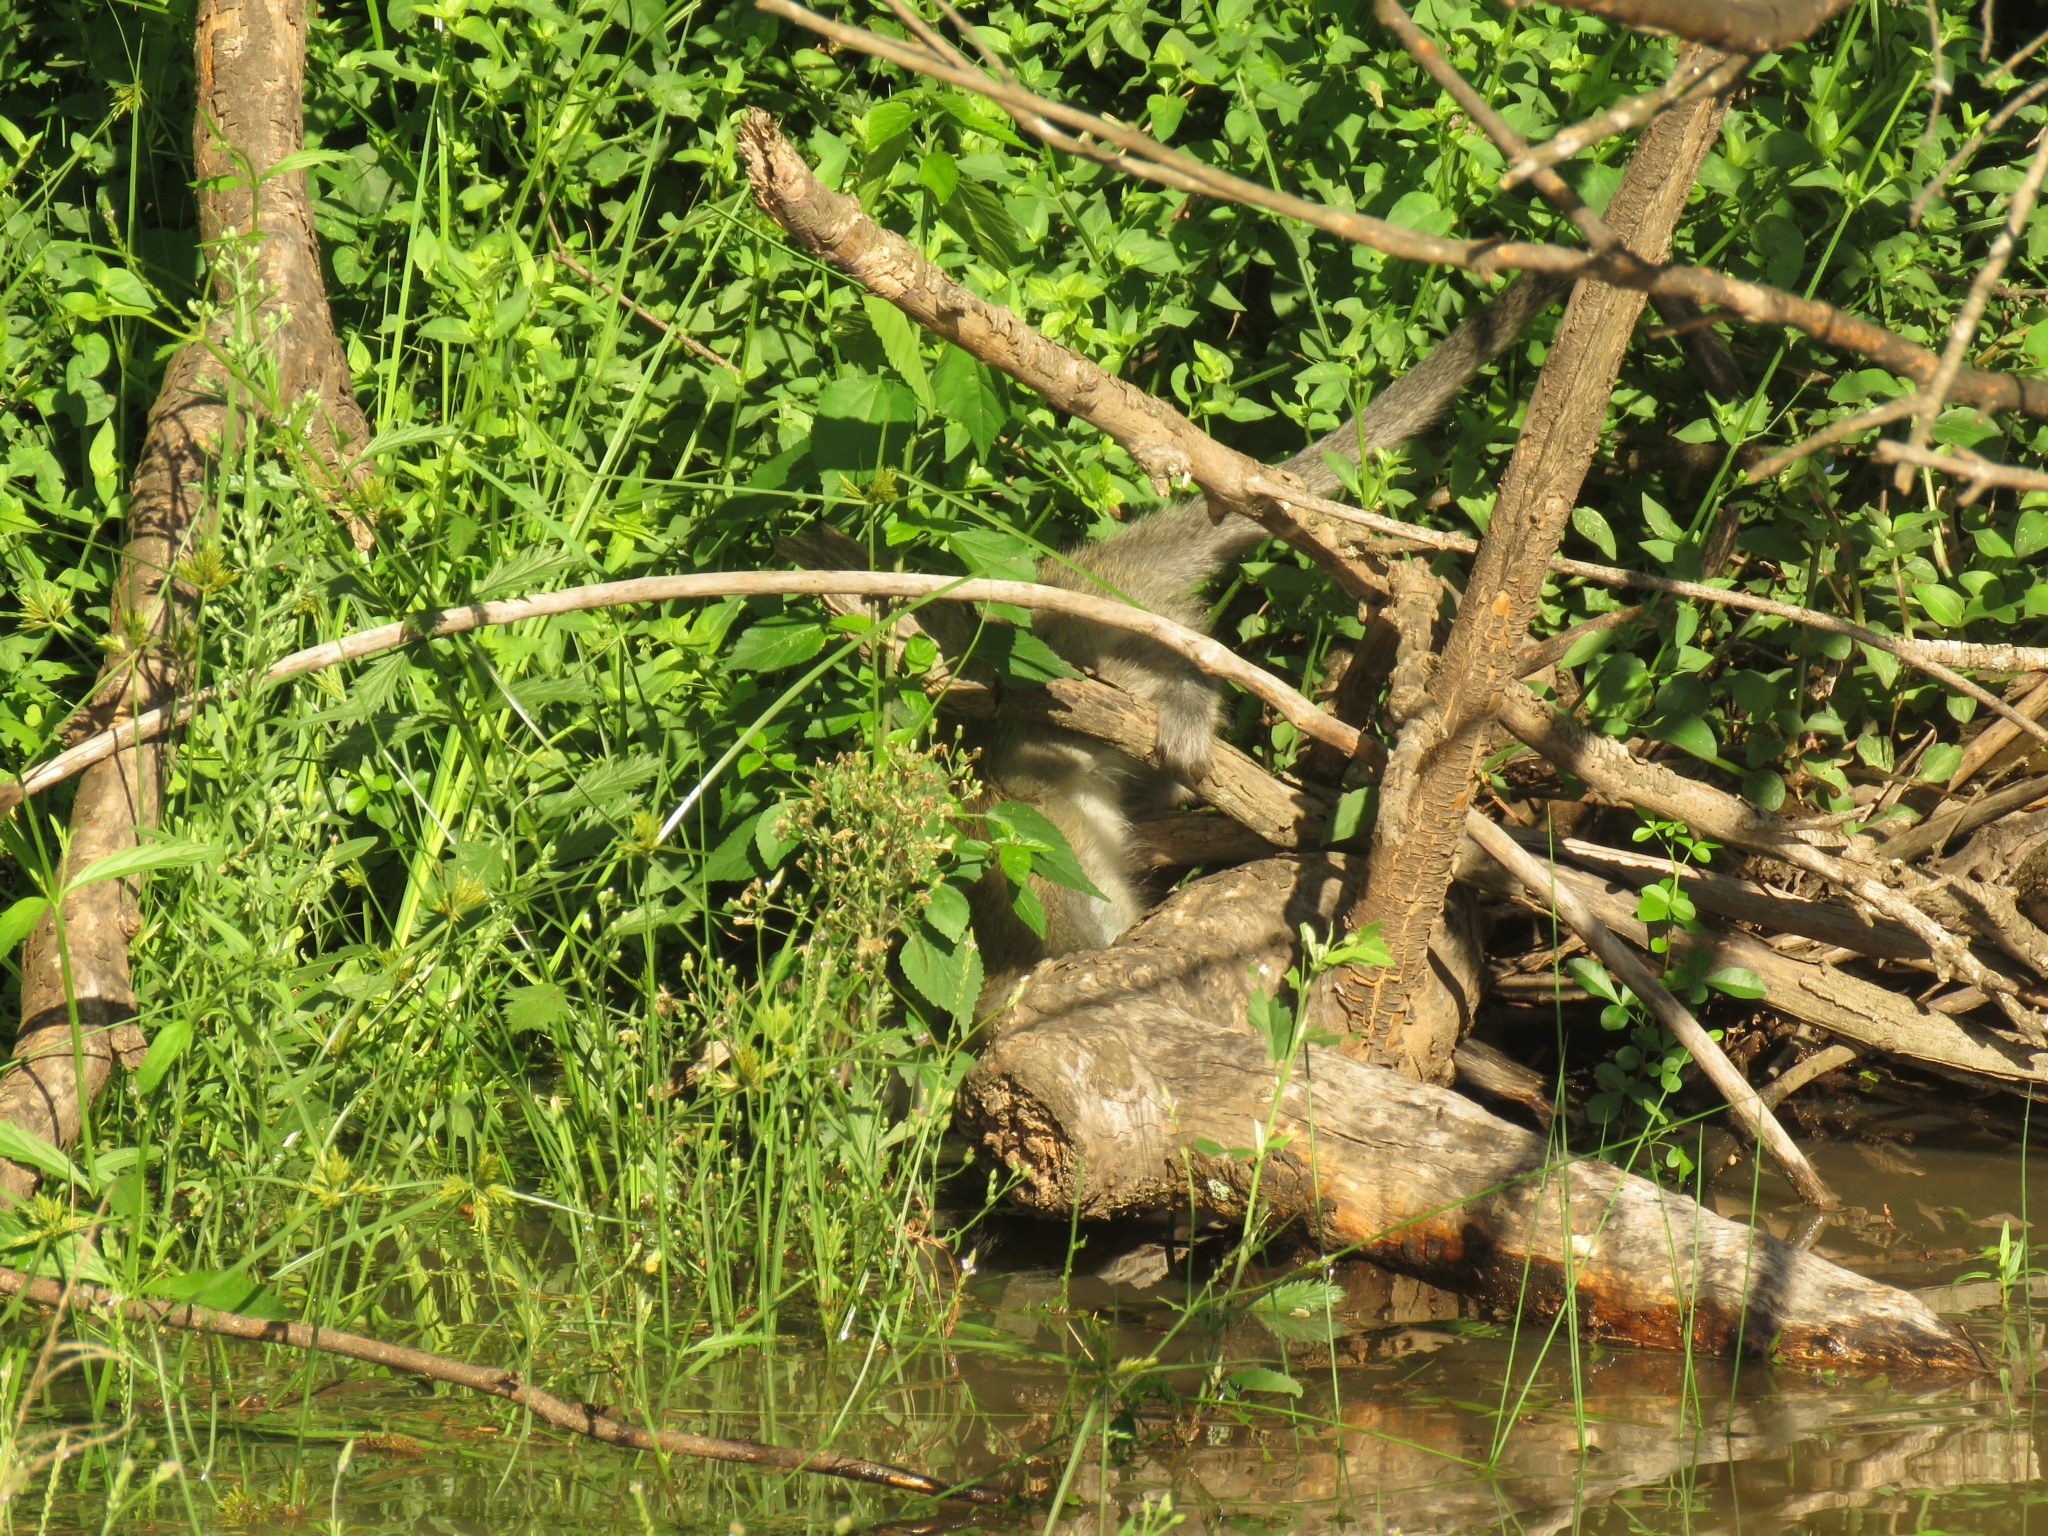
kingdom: Animalia
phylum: Chordata
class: Mammalia
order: Primates
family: Cercopithecidae
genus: Chlorocebus
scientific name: Chlorocebus pygerythrus
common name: Vervet monkey
